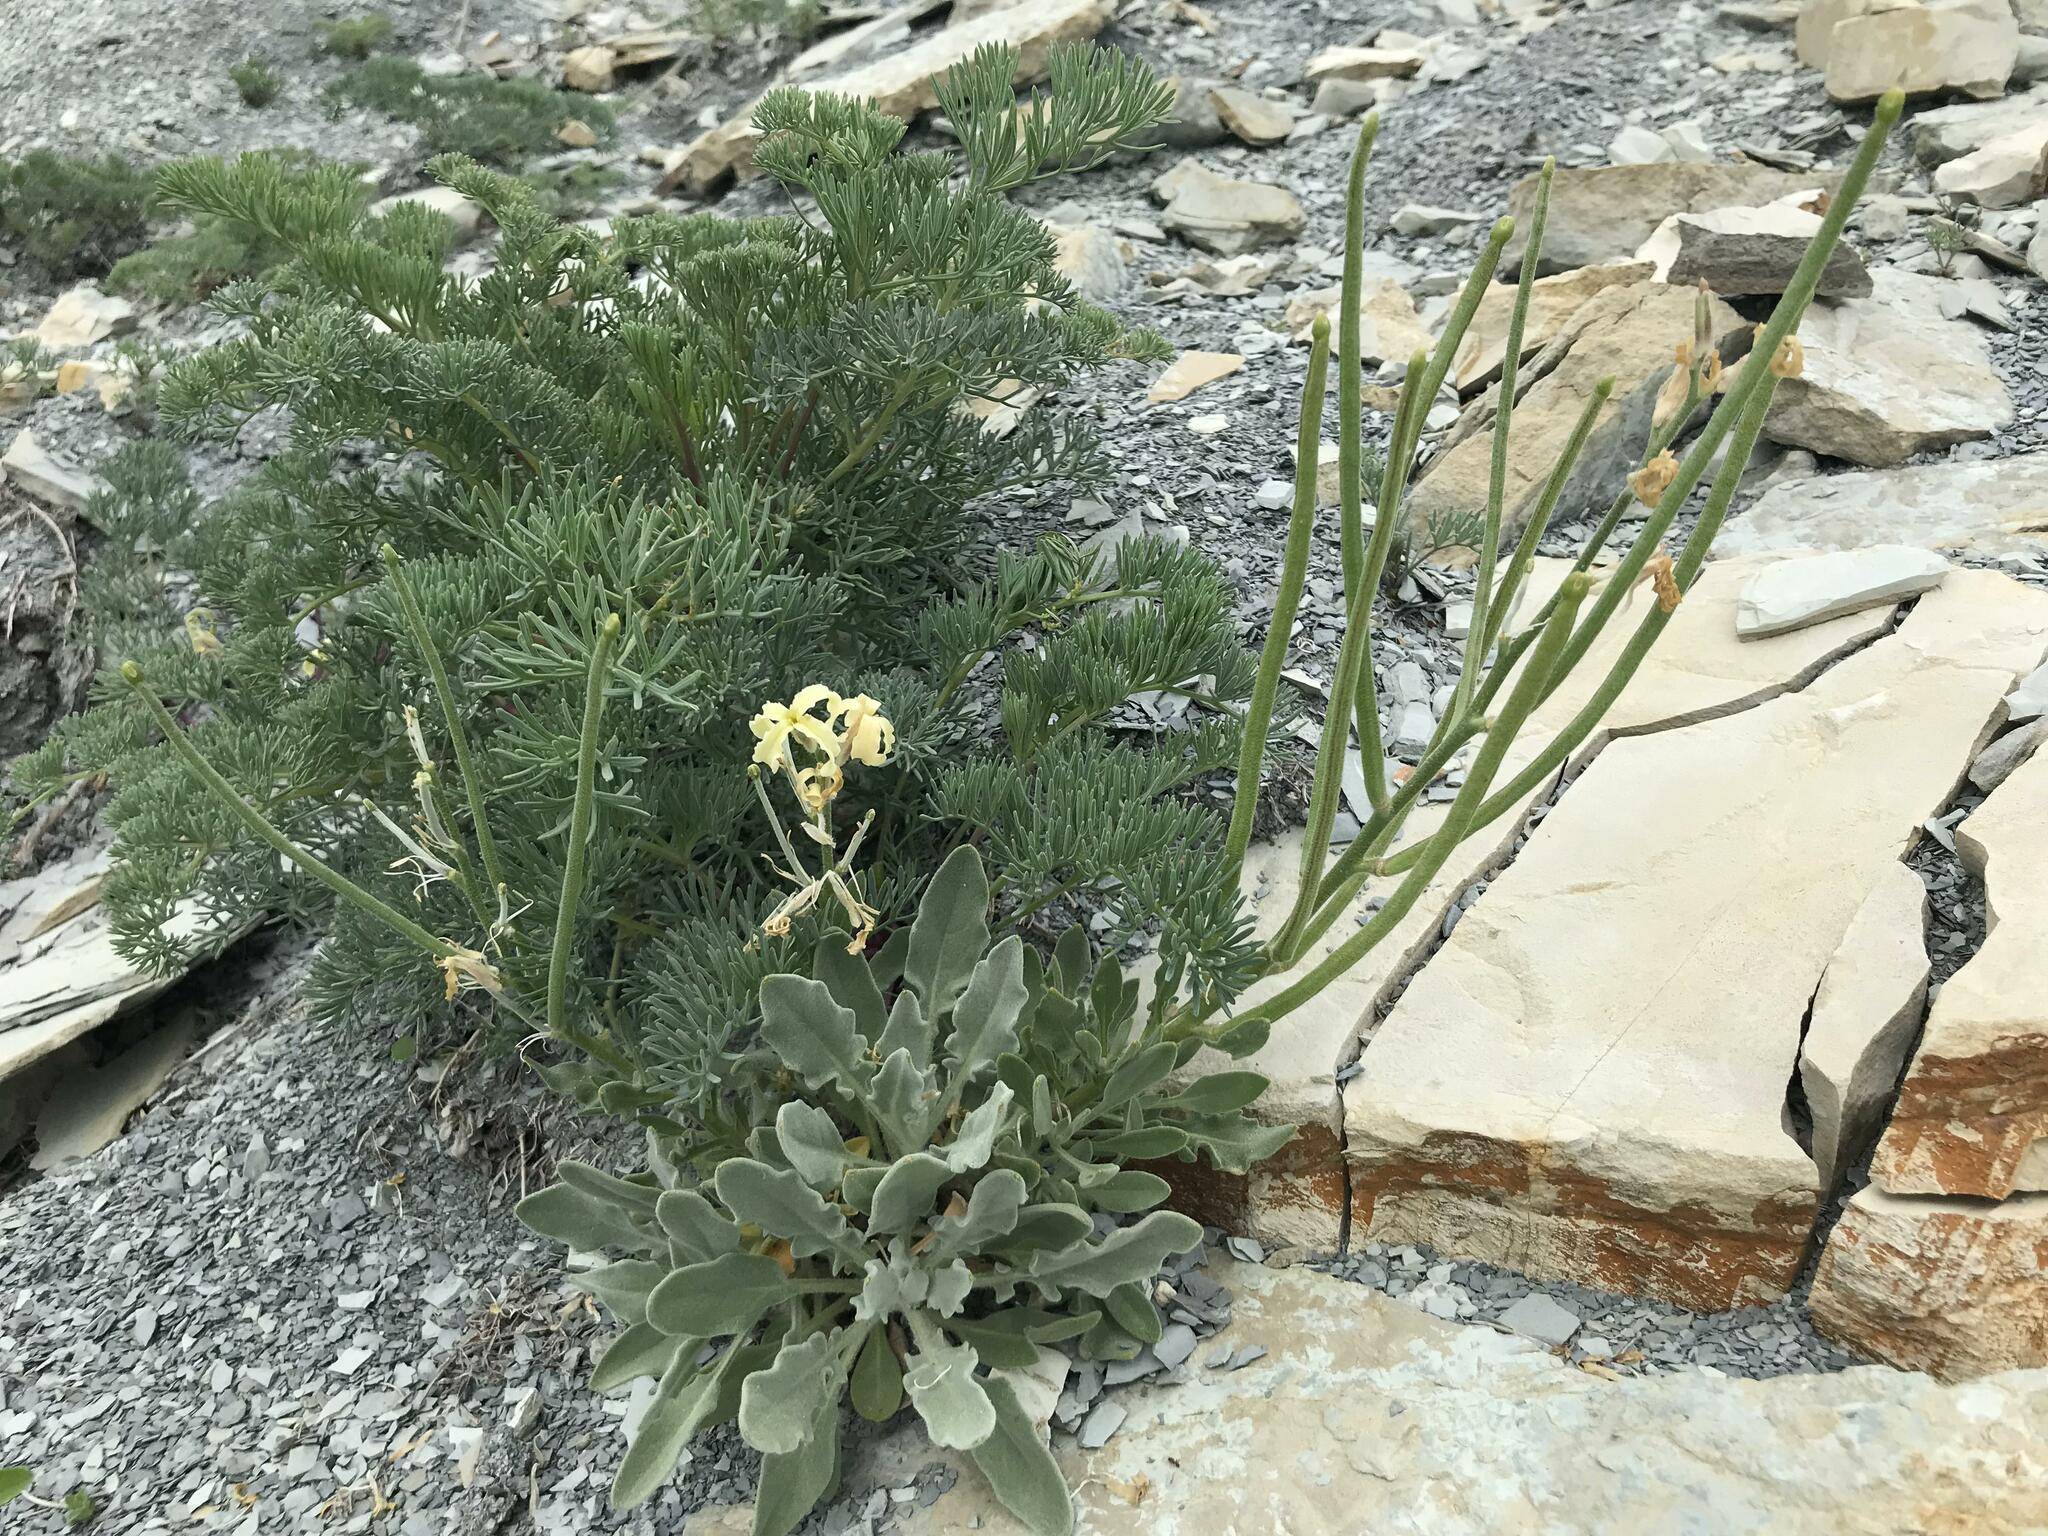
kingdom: Plantae
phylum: Tracheophyta
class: Magnoliopsida
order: Brassicales
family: Brassicaceae
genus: Matthiola
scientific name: Matthiola odoratissima
